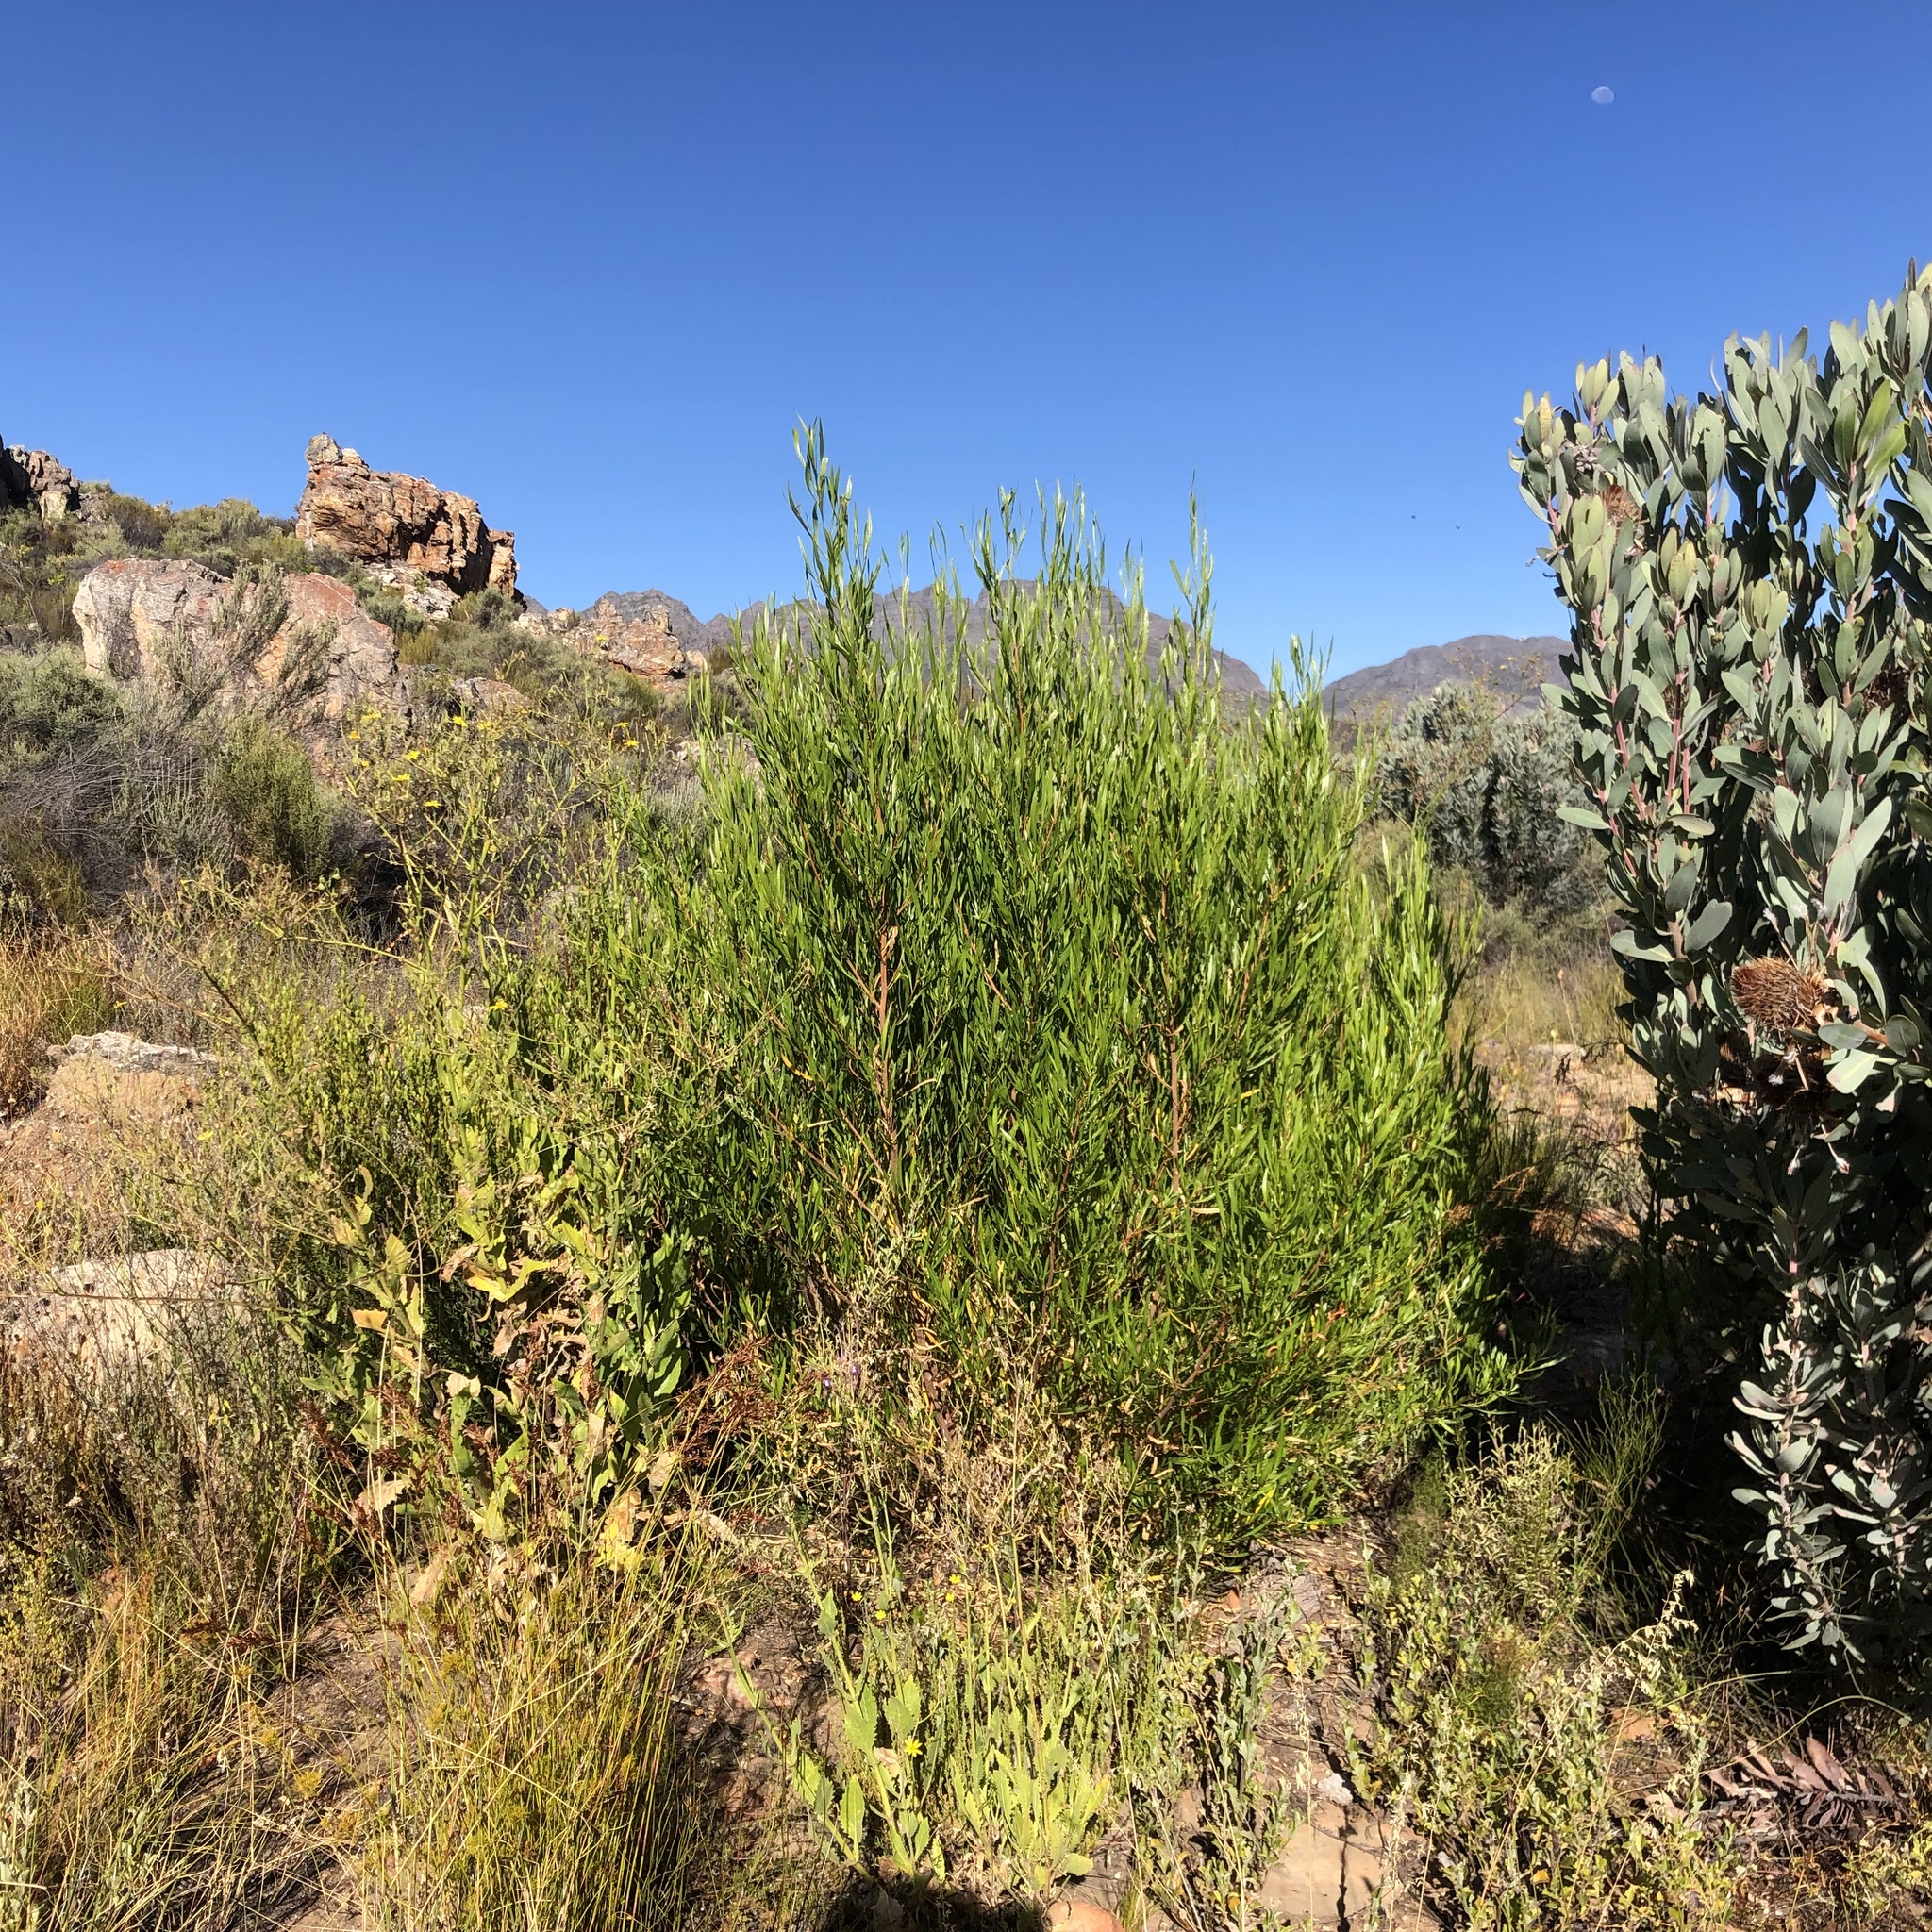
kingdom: Plantae
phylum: Tracheophyta
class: Magnoliopsida
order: Sapindales
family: Sapindaceae
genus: Dodonaea
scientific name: Dodonaea viscosa
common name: Hopbush
